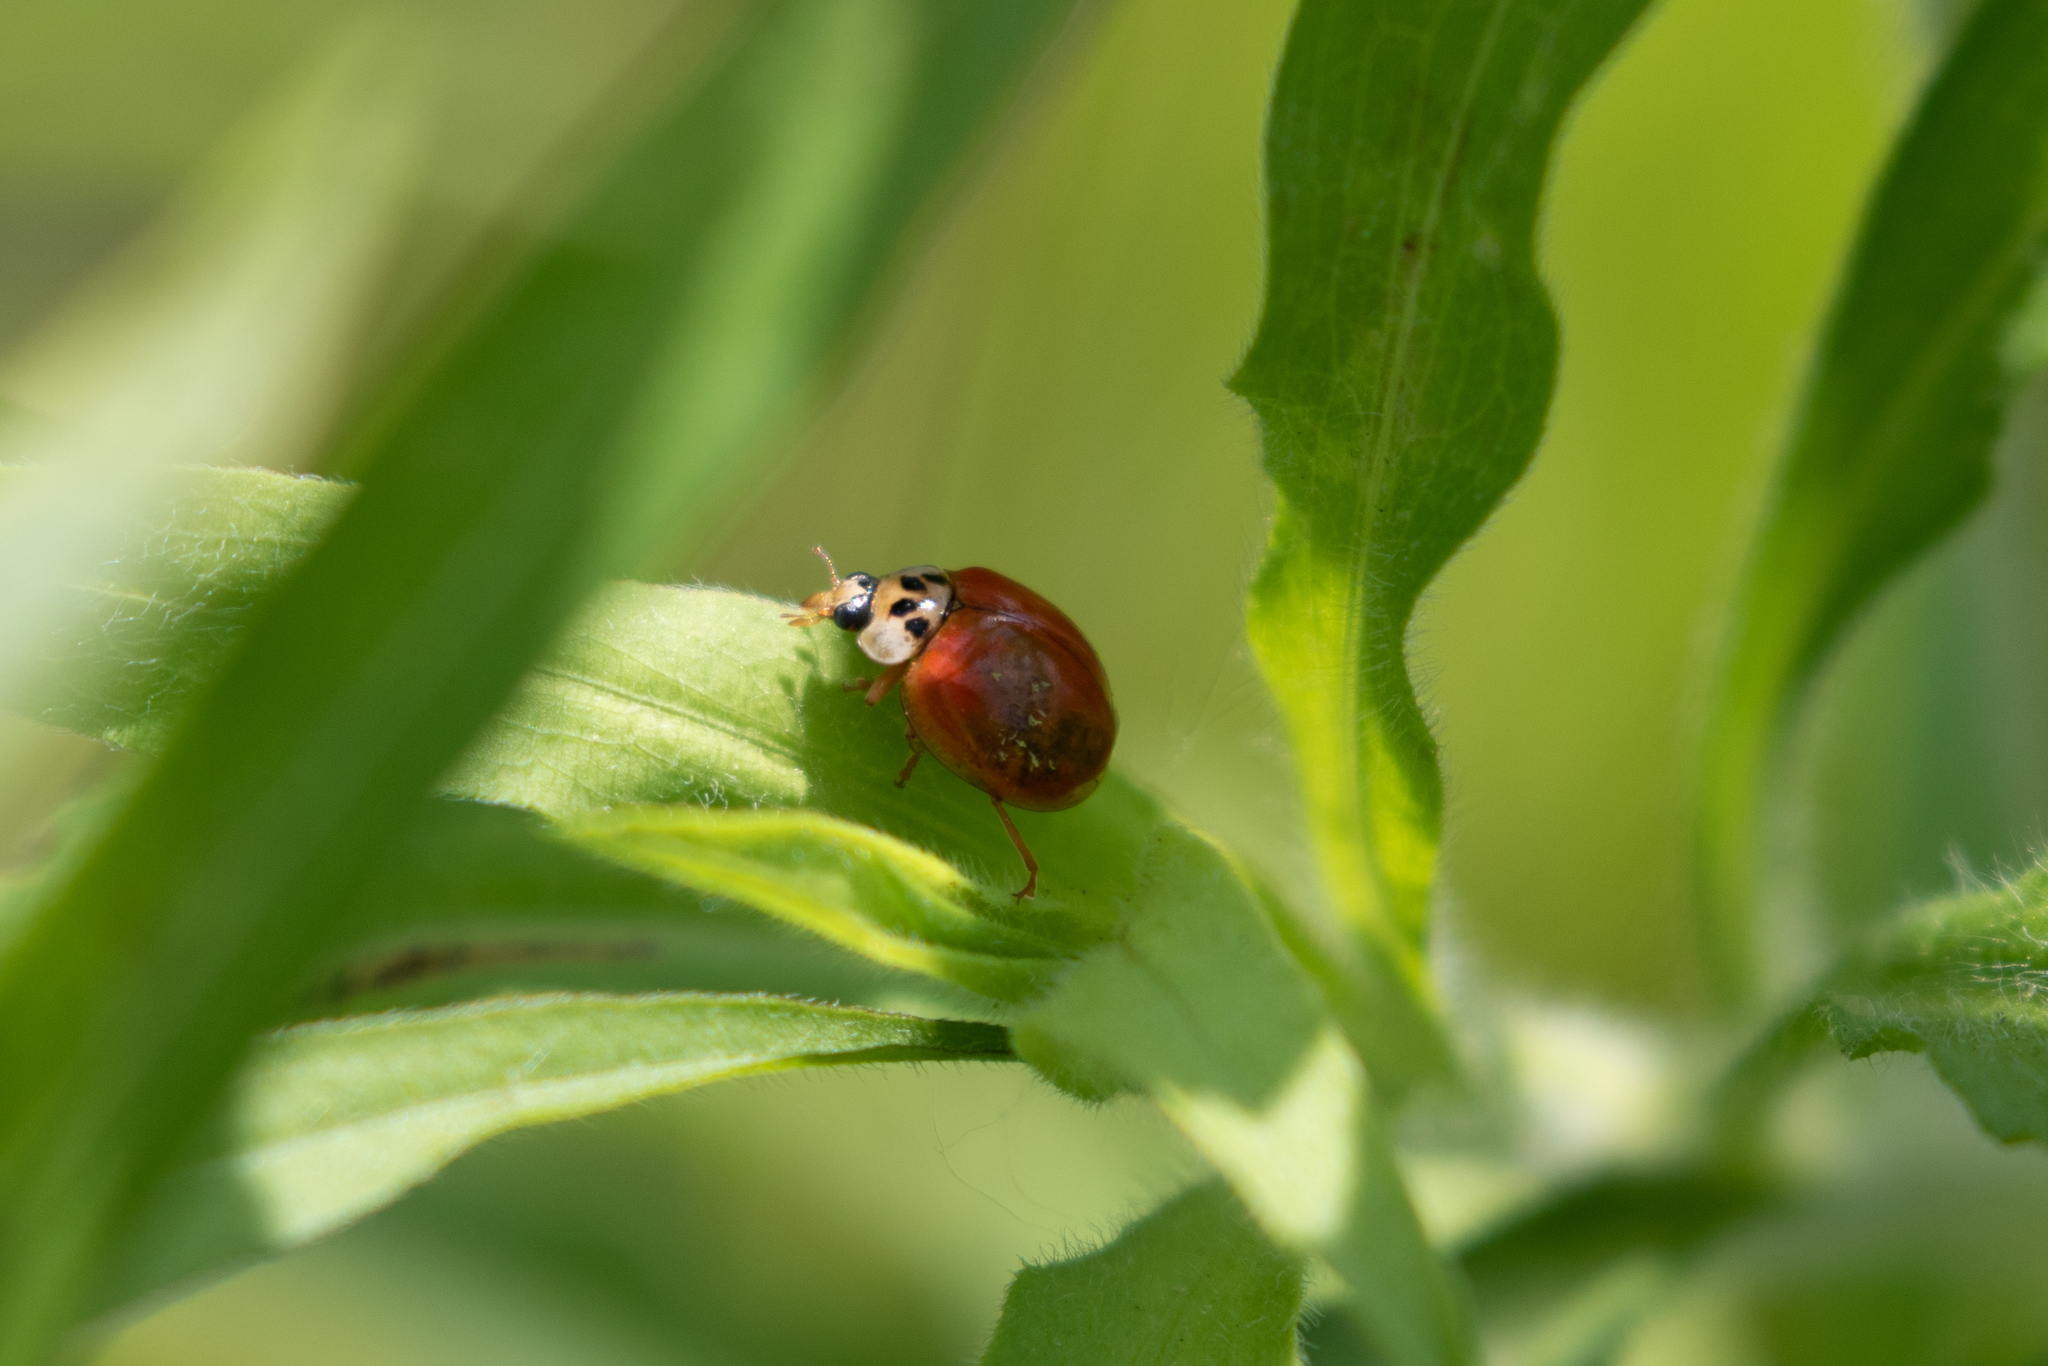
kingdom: Animalia
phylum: Arthropoda
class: Insecta
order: Coleoptera
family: Coccinellidae
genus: Harmonia
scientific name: Harmonia axyridis
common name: Harlequin ladybird
